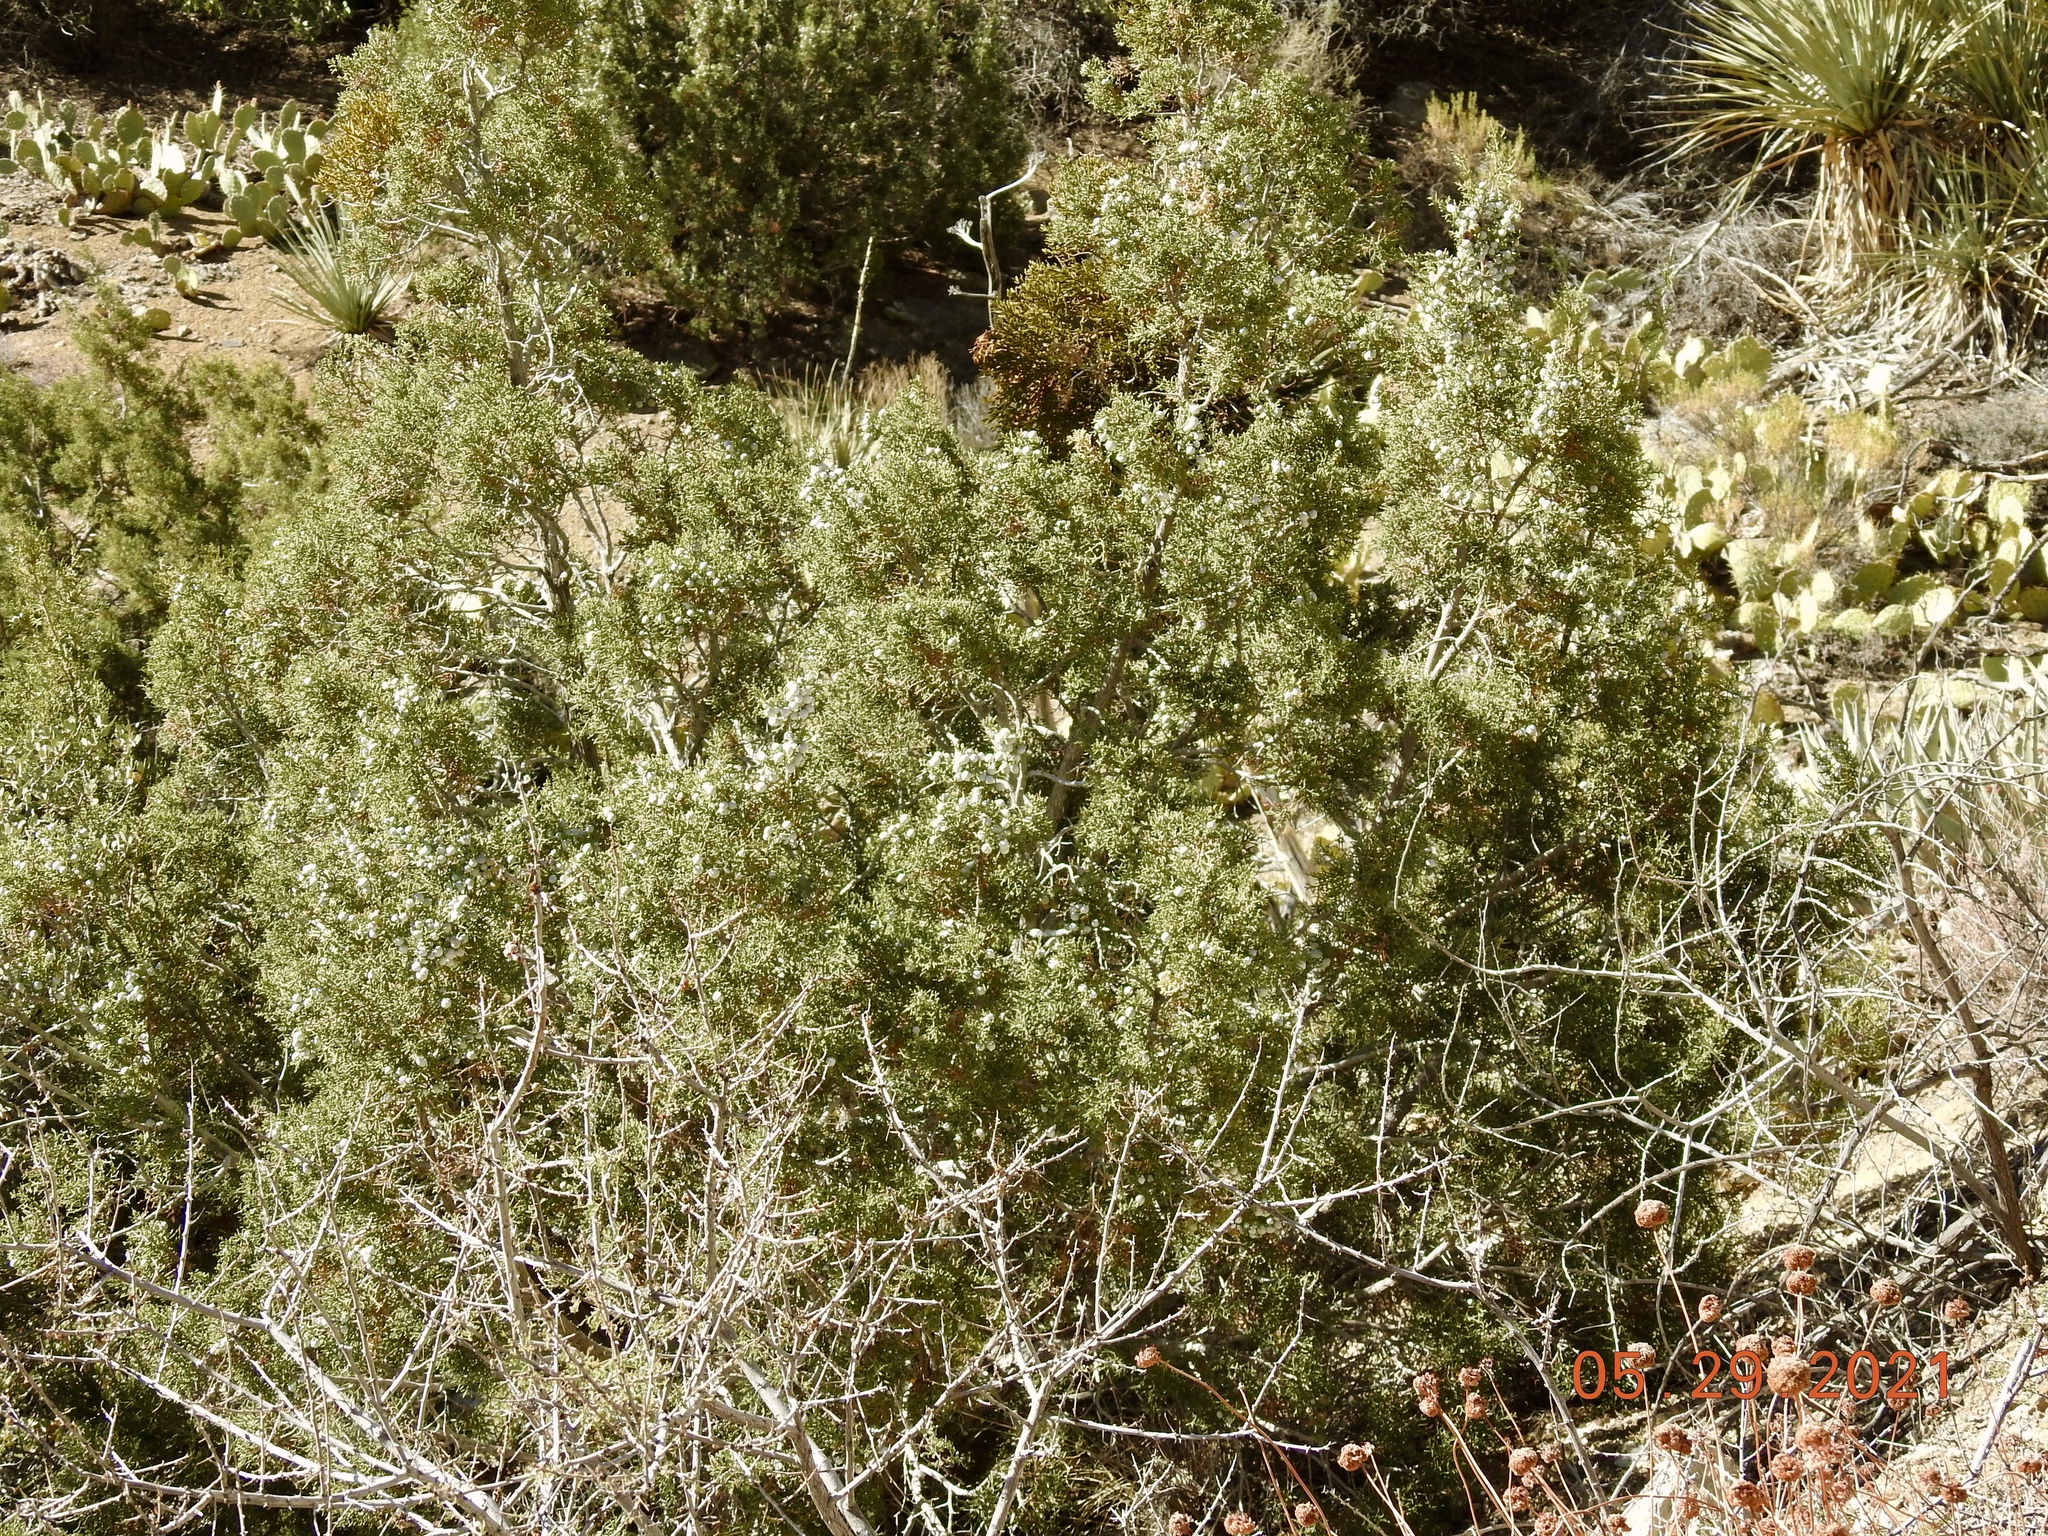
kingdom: Plantae
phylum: Tracheophyta
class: Pinopsida
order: Pinales
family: Cupressaceae
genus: Juniperus
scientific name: Juniperus californica
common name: California juniper
